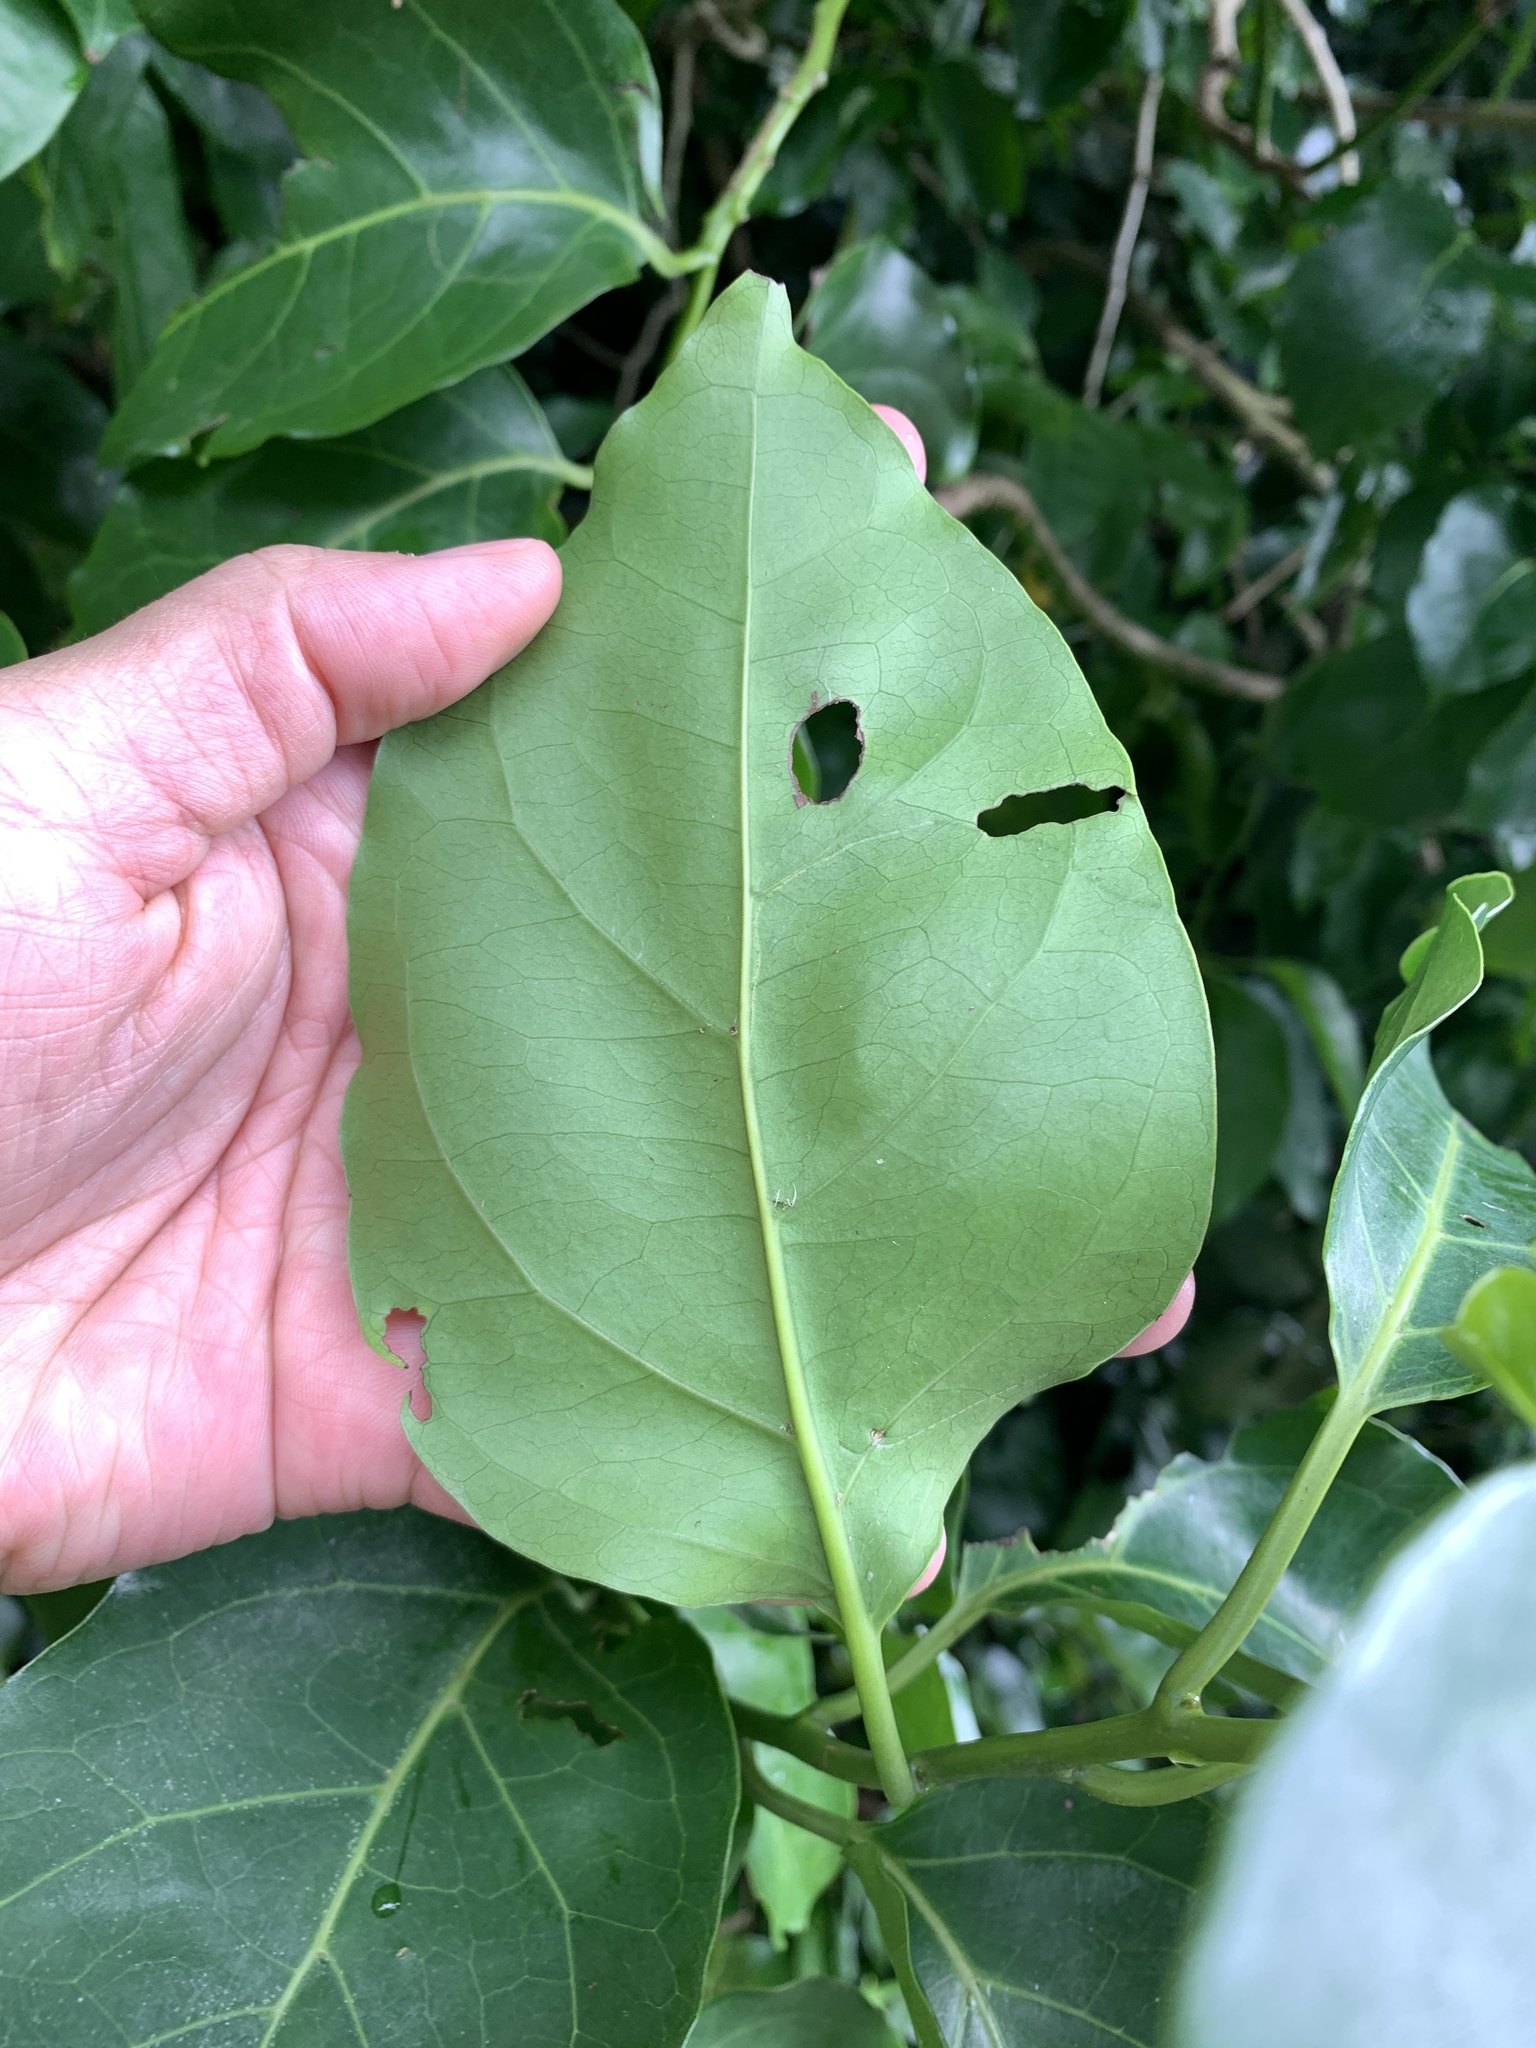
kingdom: Plantae
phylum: Tracheophyta
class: Magnoliopsida
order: Boraginales
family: Ehretiaceae
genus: Ehretia
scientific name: Ehretia philippinensis
